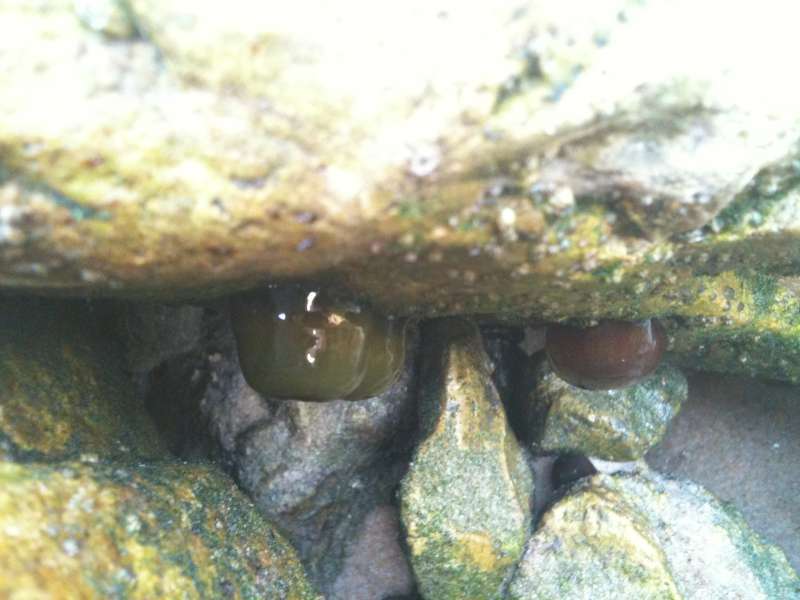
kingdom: Animalia
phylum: Cnidaria
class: Anthozoa
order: Actiniaria
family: Actiniidae
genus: Actinia
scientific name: Actinia equina
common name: Beadlet anemone
